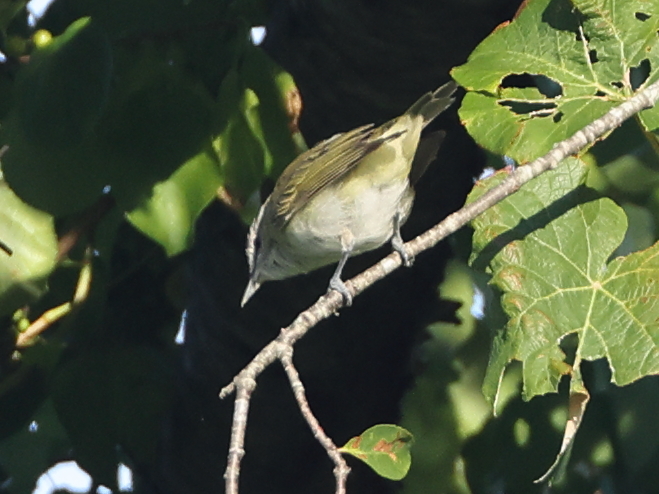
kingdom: Animalia
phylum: Chordata
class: Aves
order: Passeriformes
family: Vireonidae
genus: Vireo
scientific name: Vireo olivaceus
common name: Red-eyed vireo
